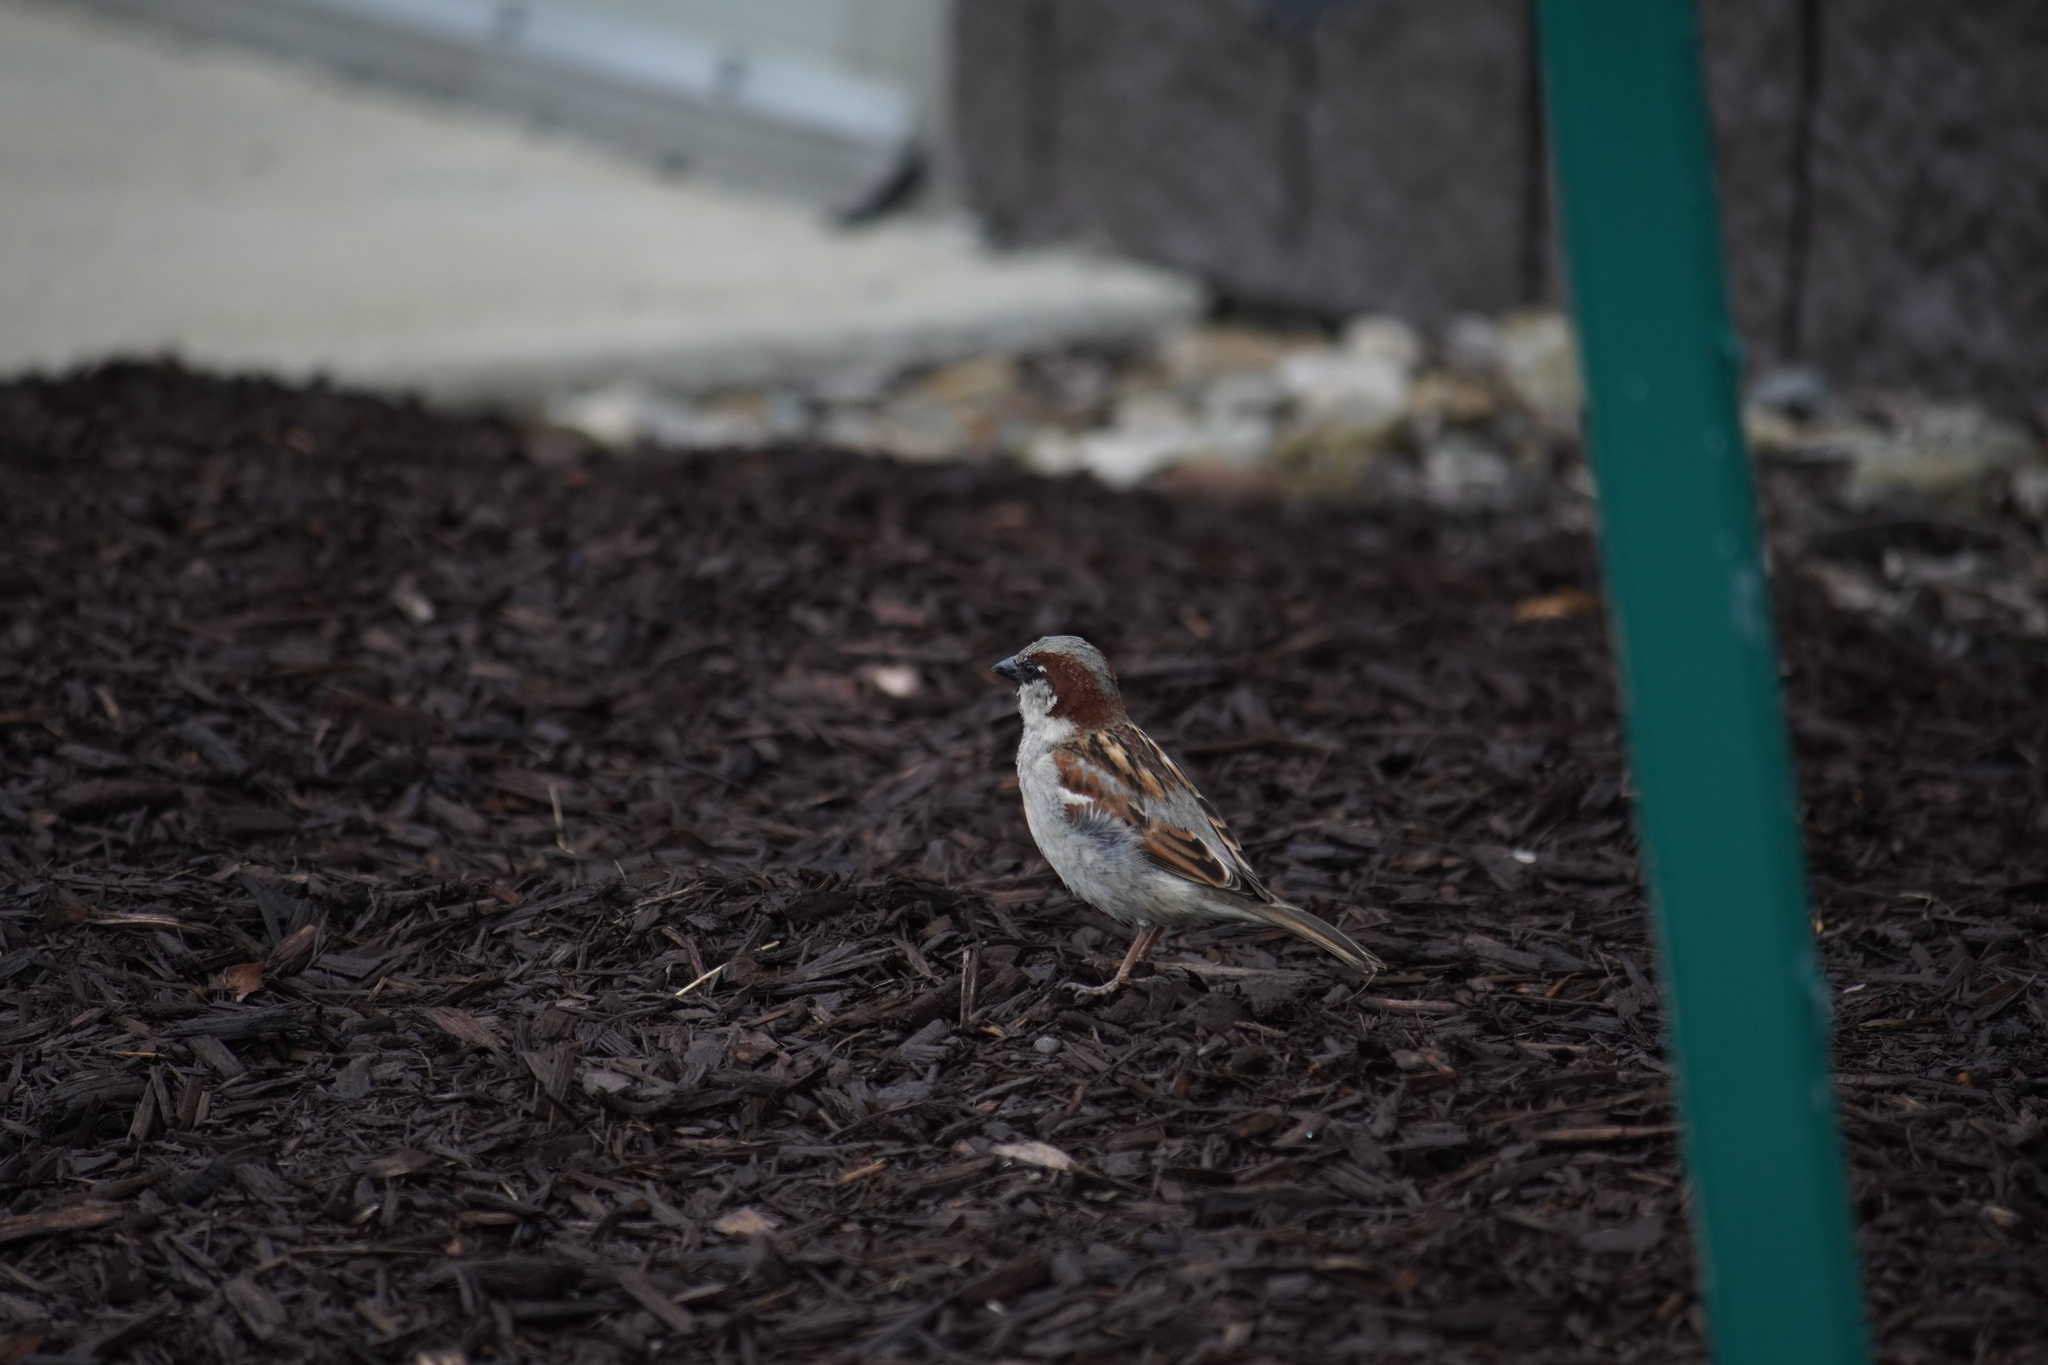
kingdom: Animalia
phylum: Chordata
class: Aves
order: Passeriformes
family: Passeridae
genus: Passer
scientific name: Passer domesticus
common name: House sparrow
